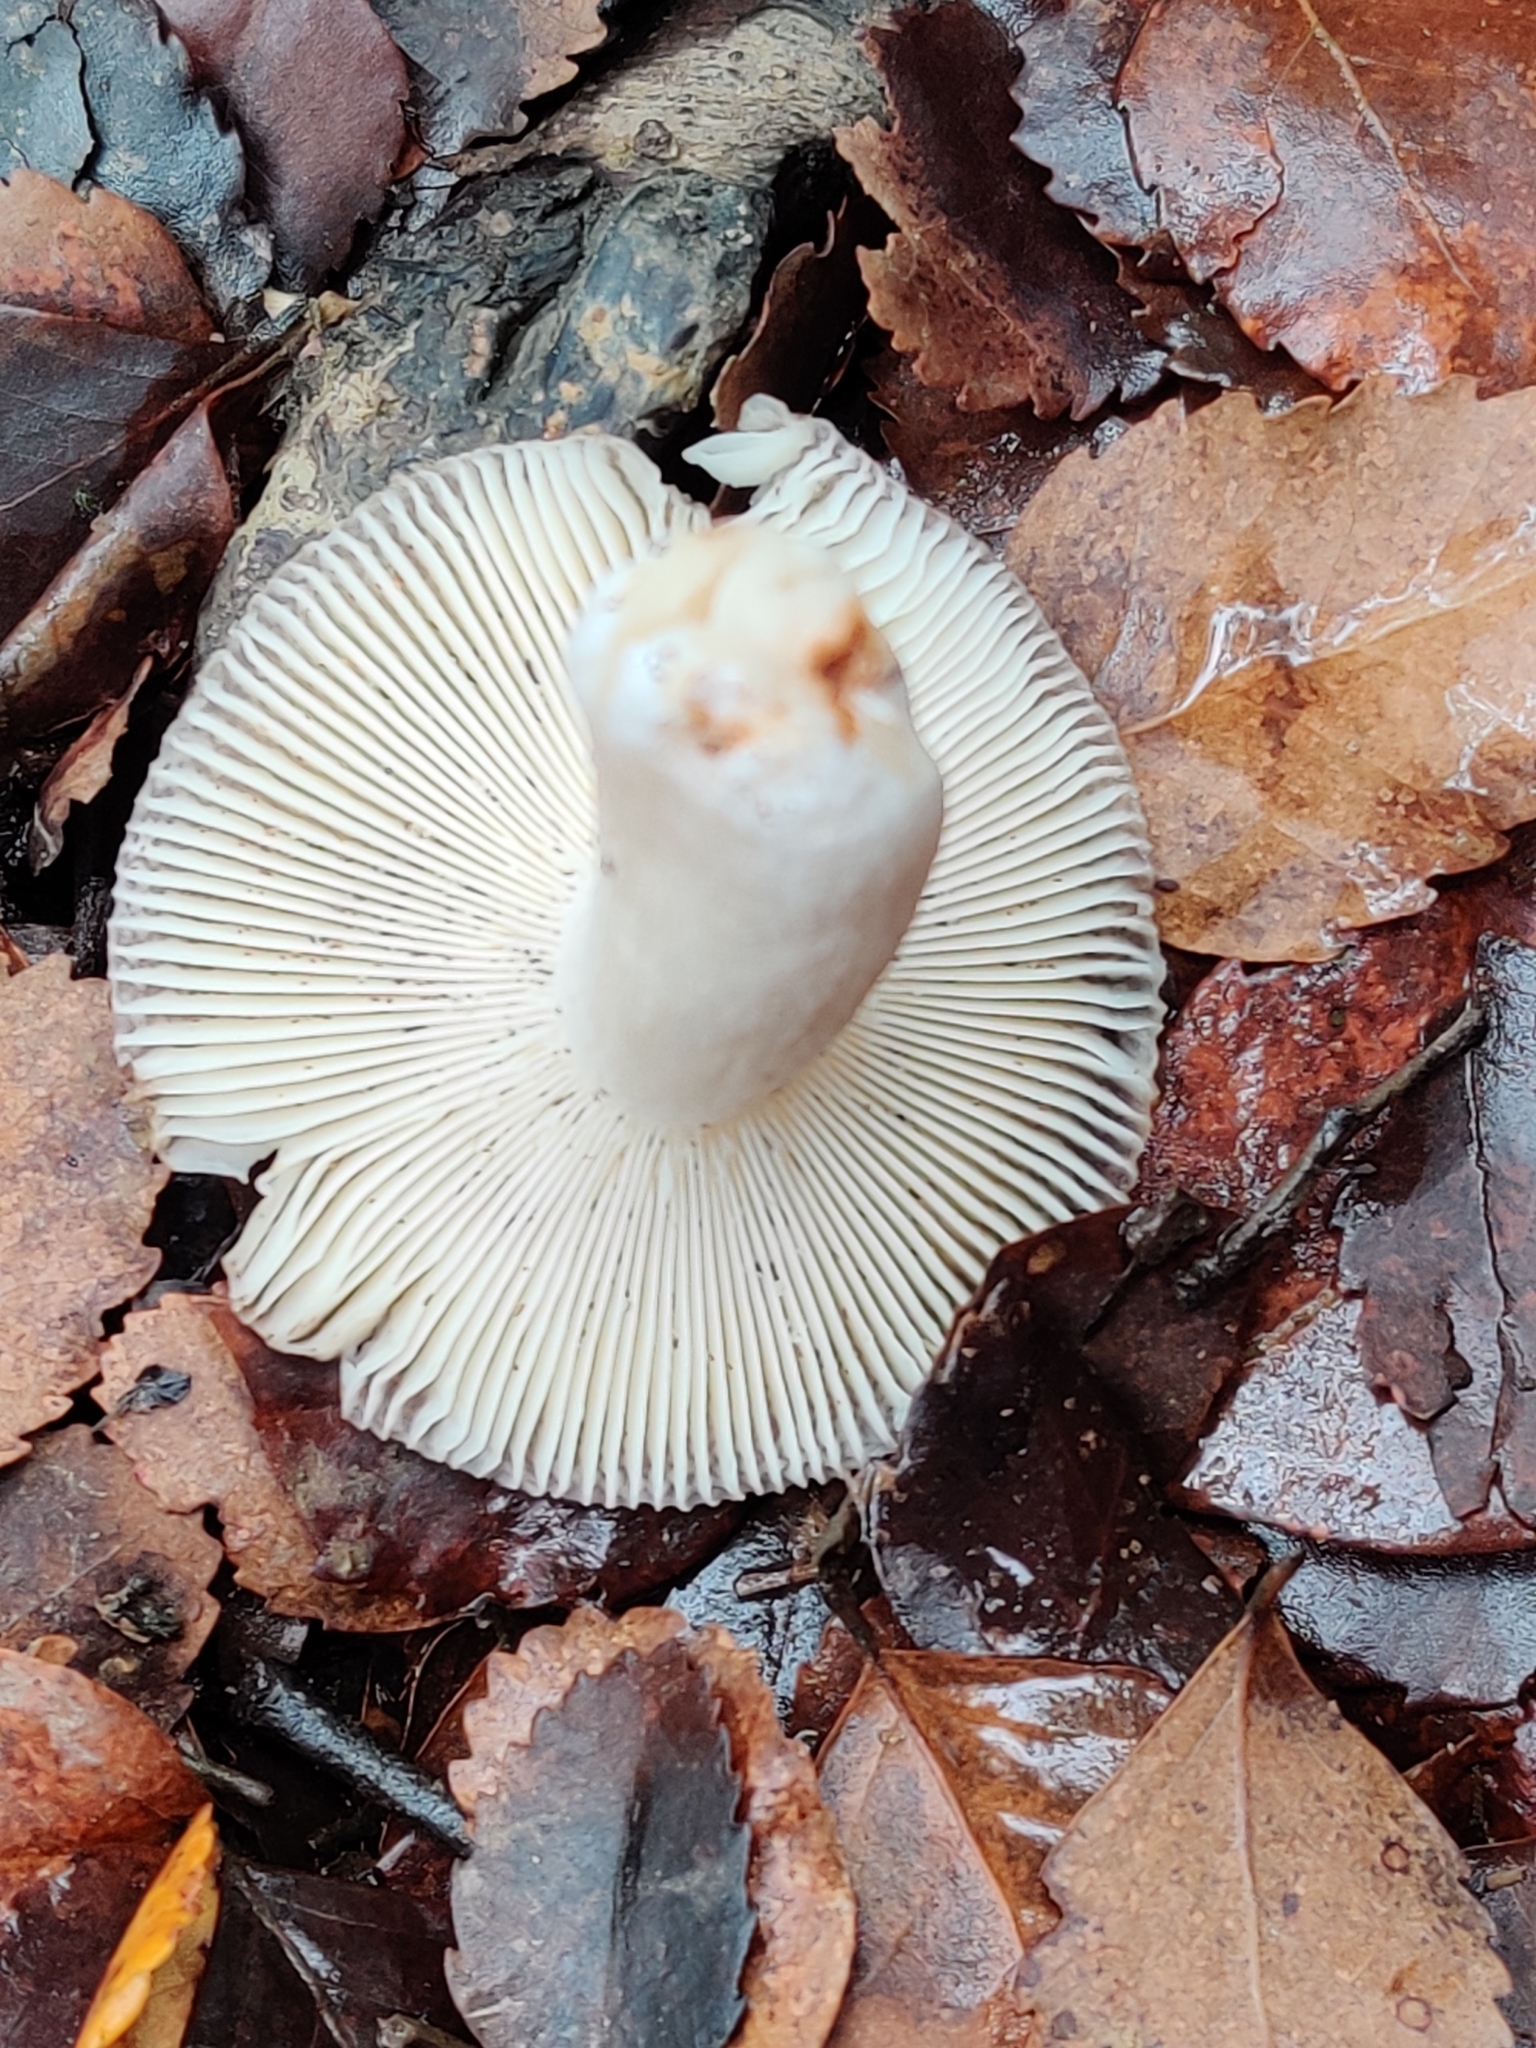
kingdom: Fungi
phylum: Basidiomycota
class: Agaricomycetes
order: Russulales
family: Russulaceae
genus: Russula
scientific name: Russula roseopileata
